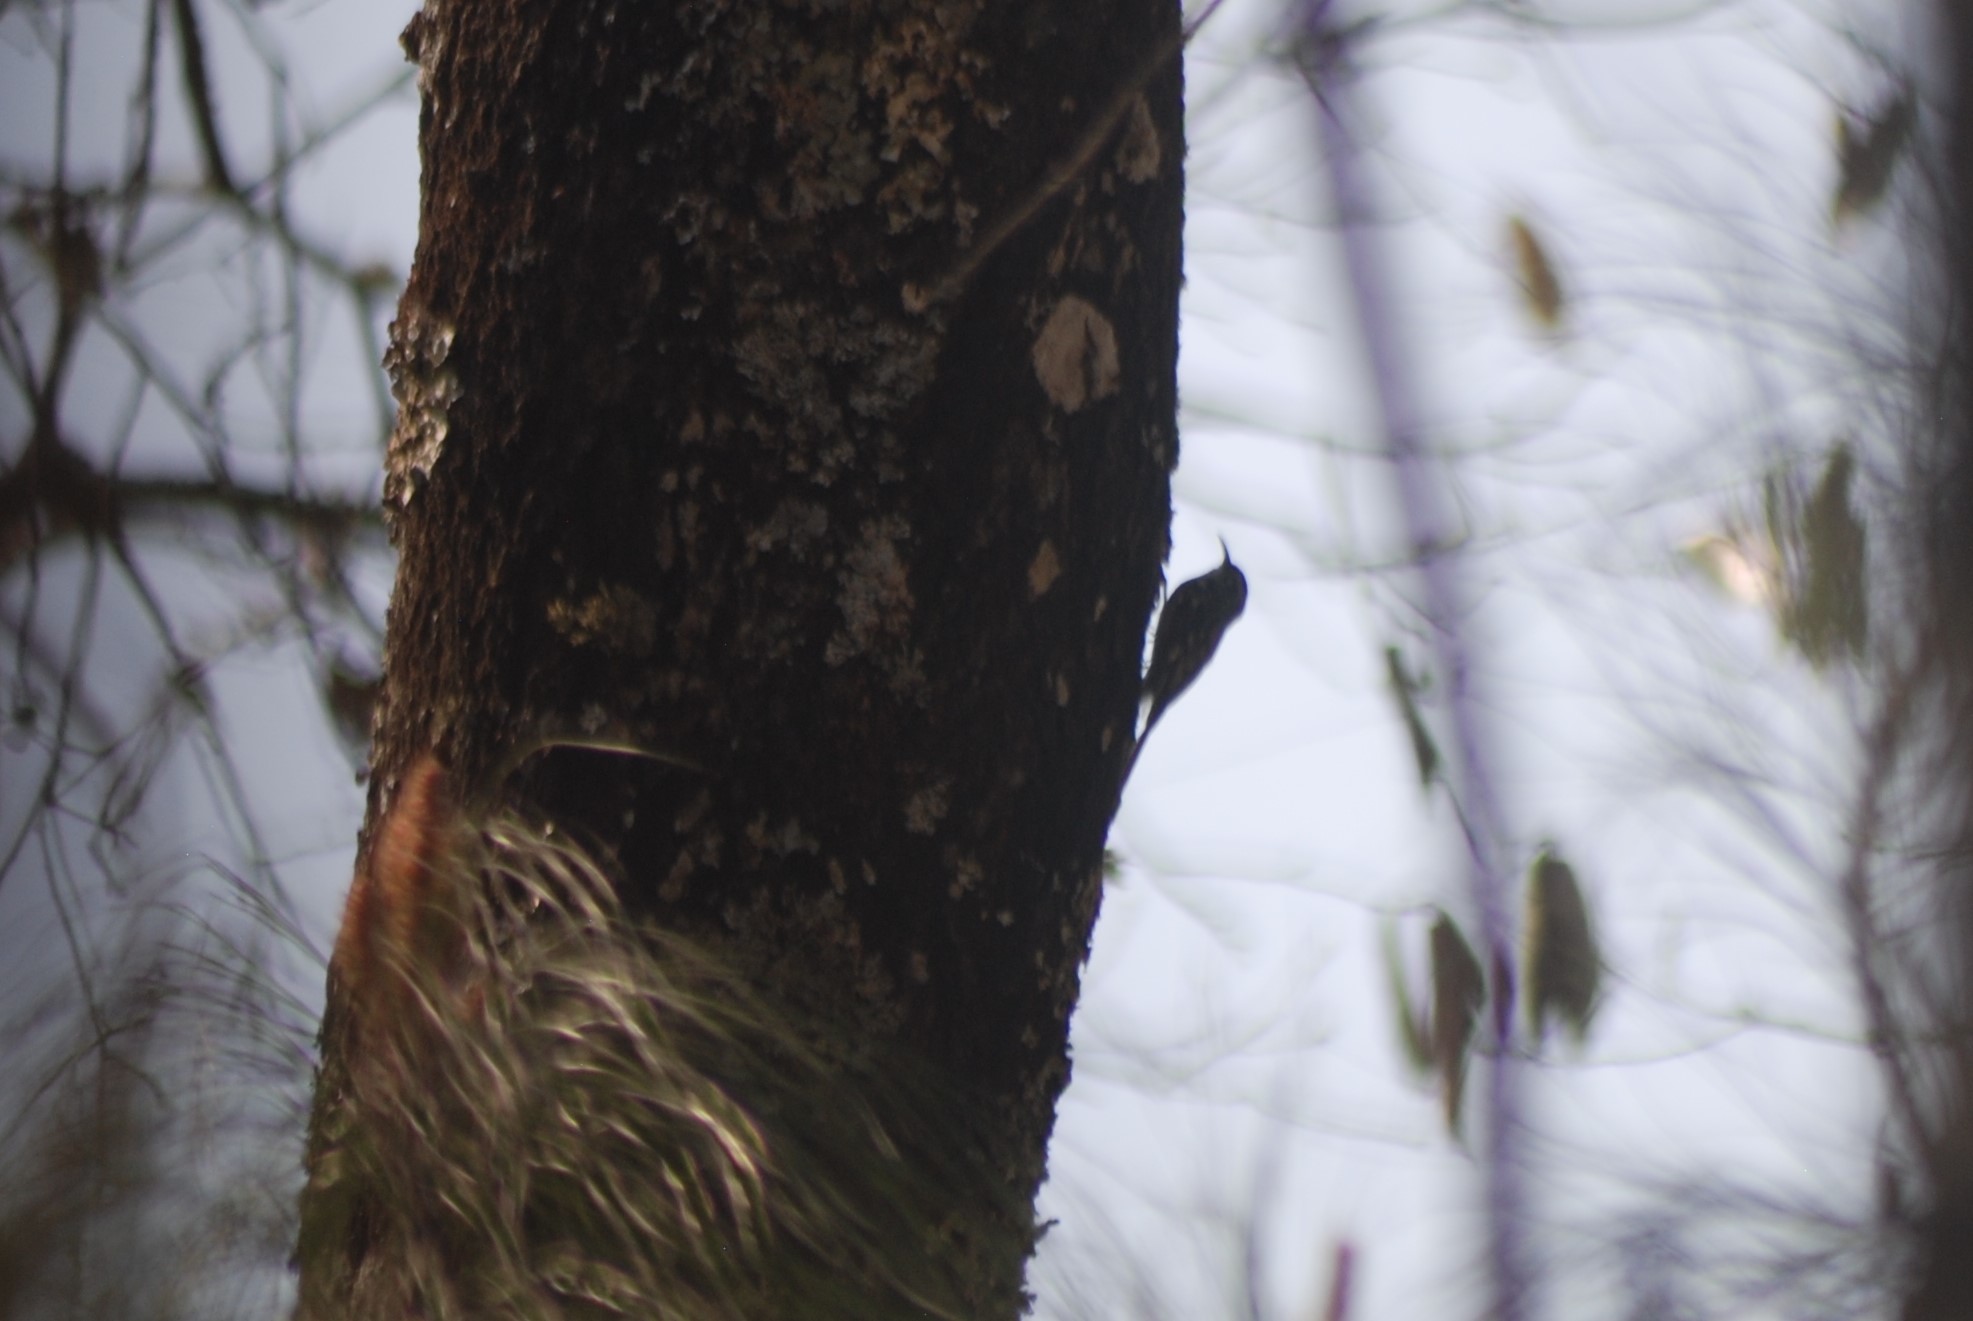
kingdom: Animalia
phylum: Chordata
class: Aves
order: Passeriformes
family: Certhiidae
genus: Certhia
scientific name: Certhia americana
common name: Brown creeper
